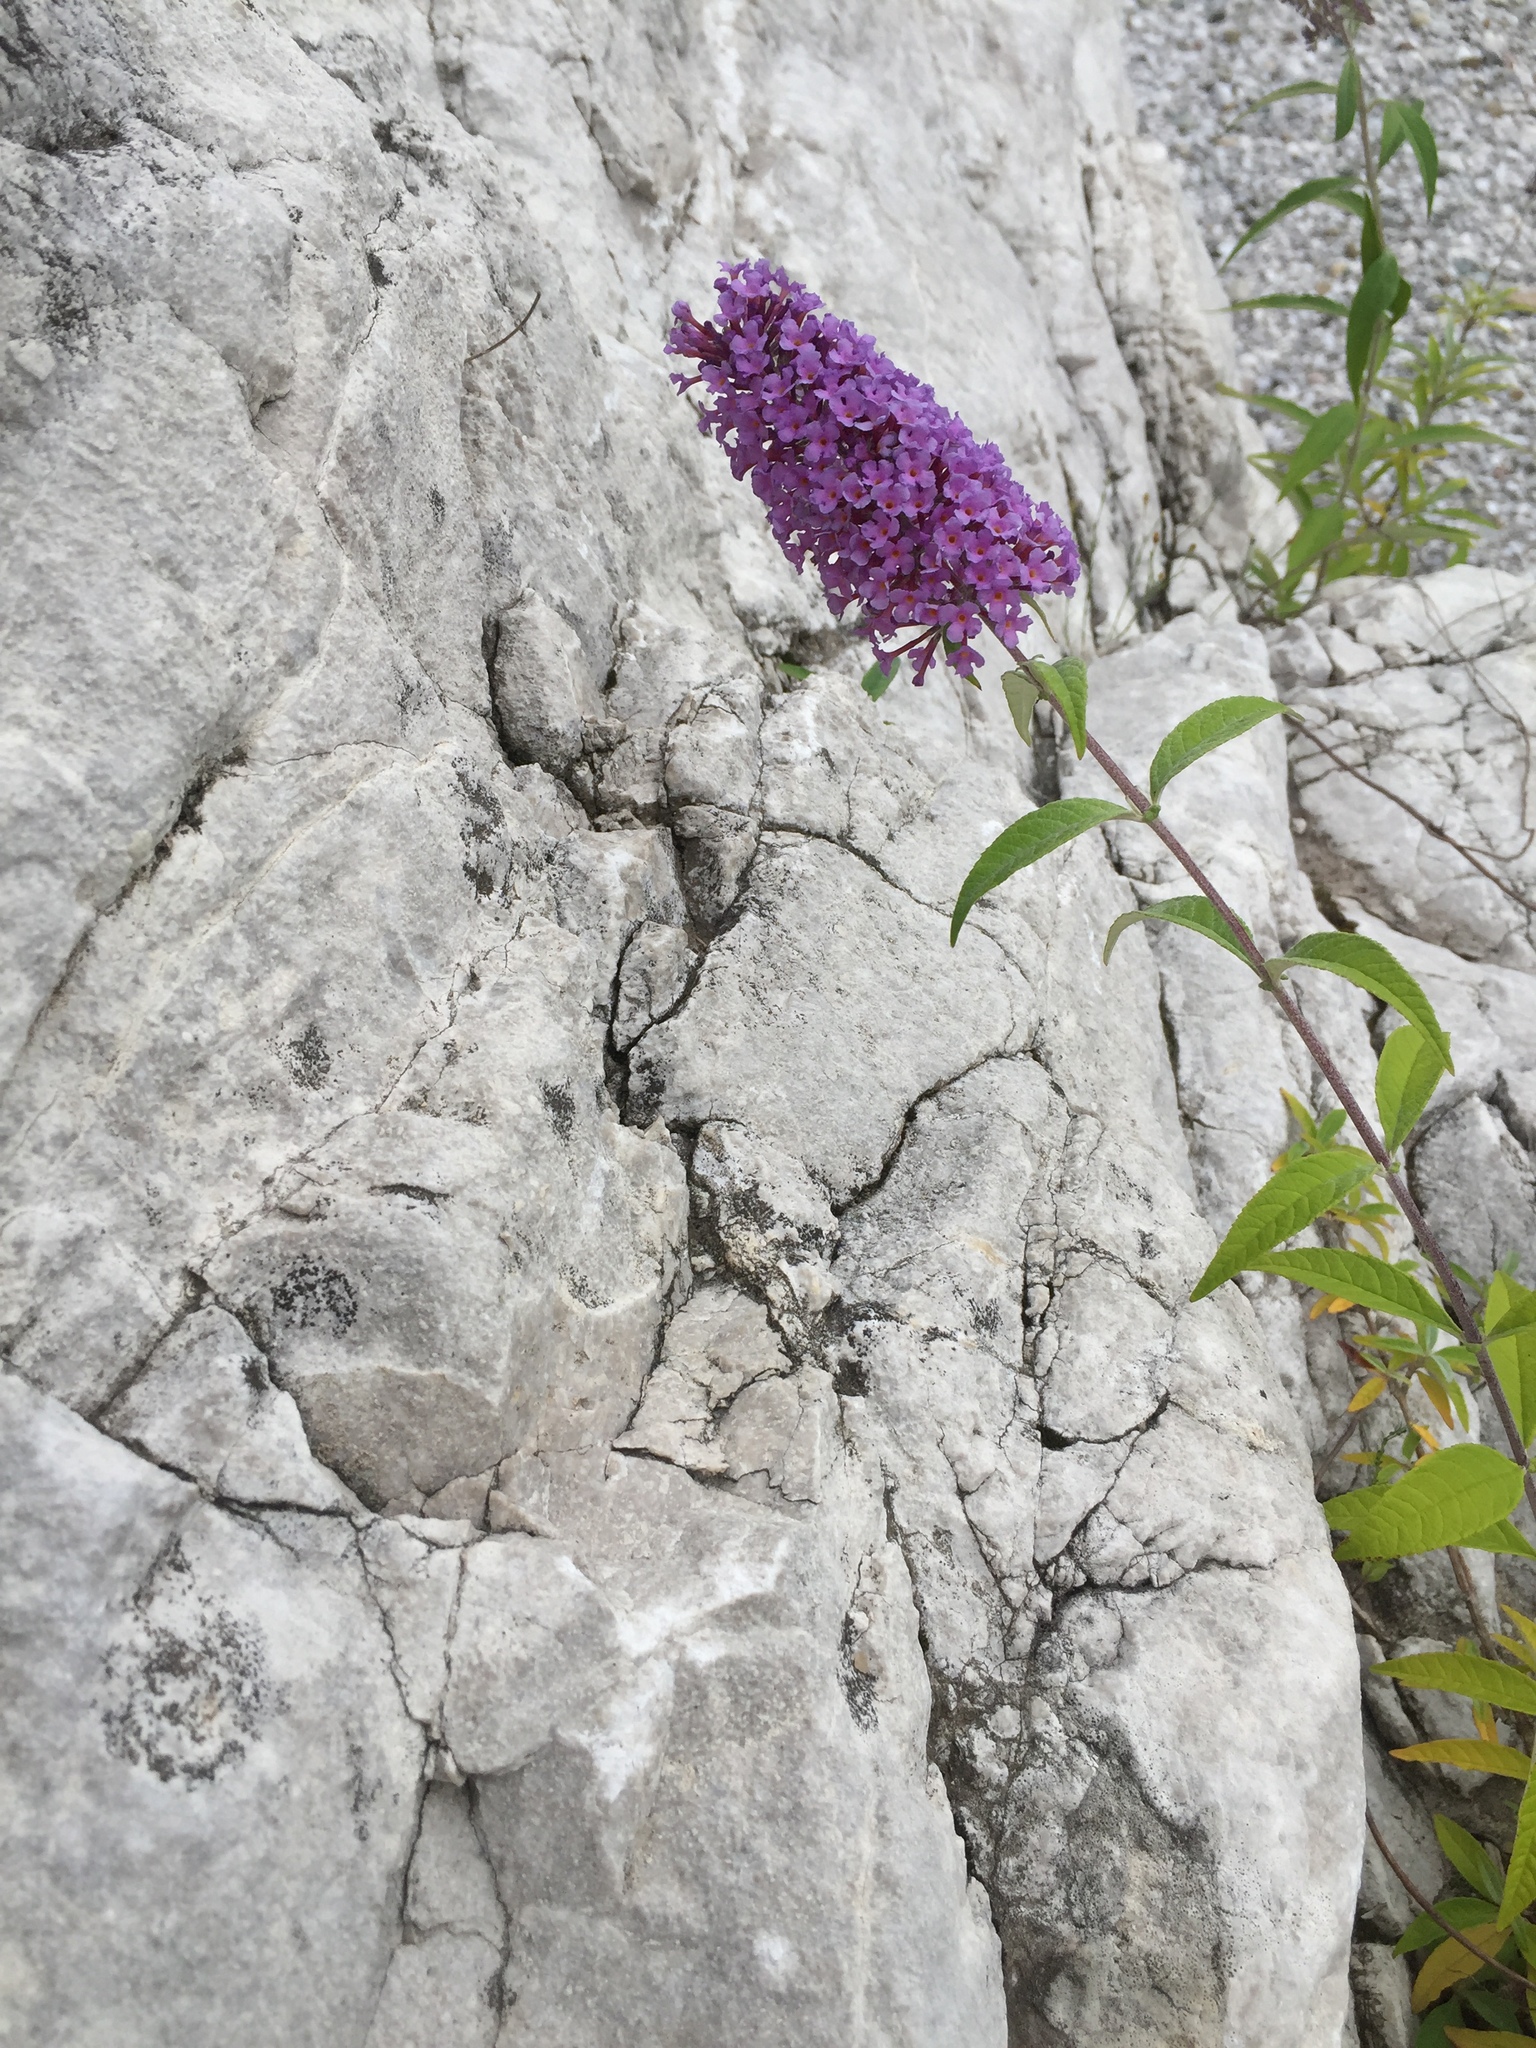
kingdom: Plantae
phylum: Tracheophyta
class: Magnoliopsida
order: Lamiales
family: Scrophulariaceae
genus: Buddleja
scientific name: Buddleja davidii
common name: Butterfly-bush
